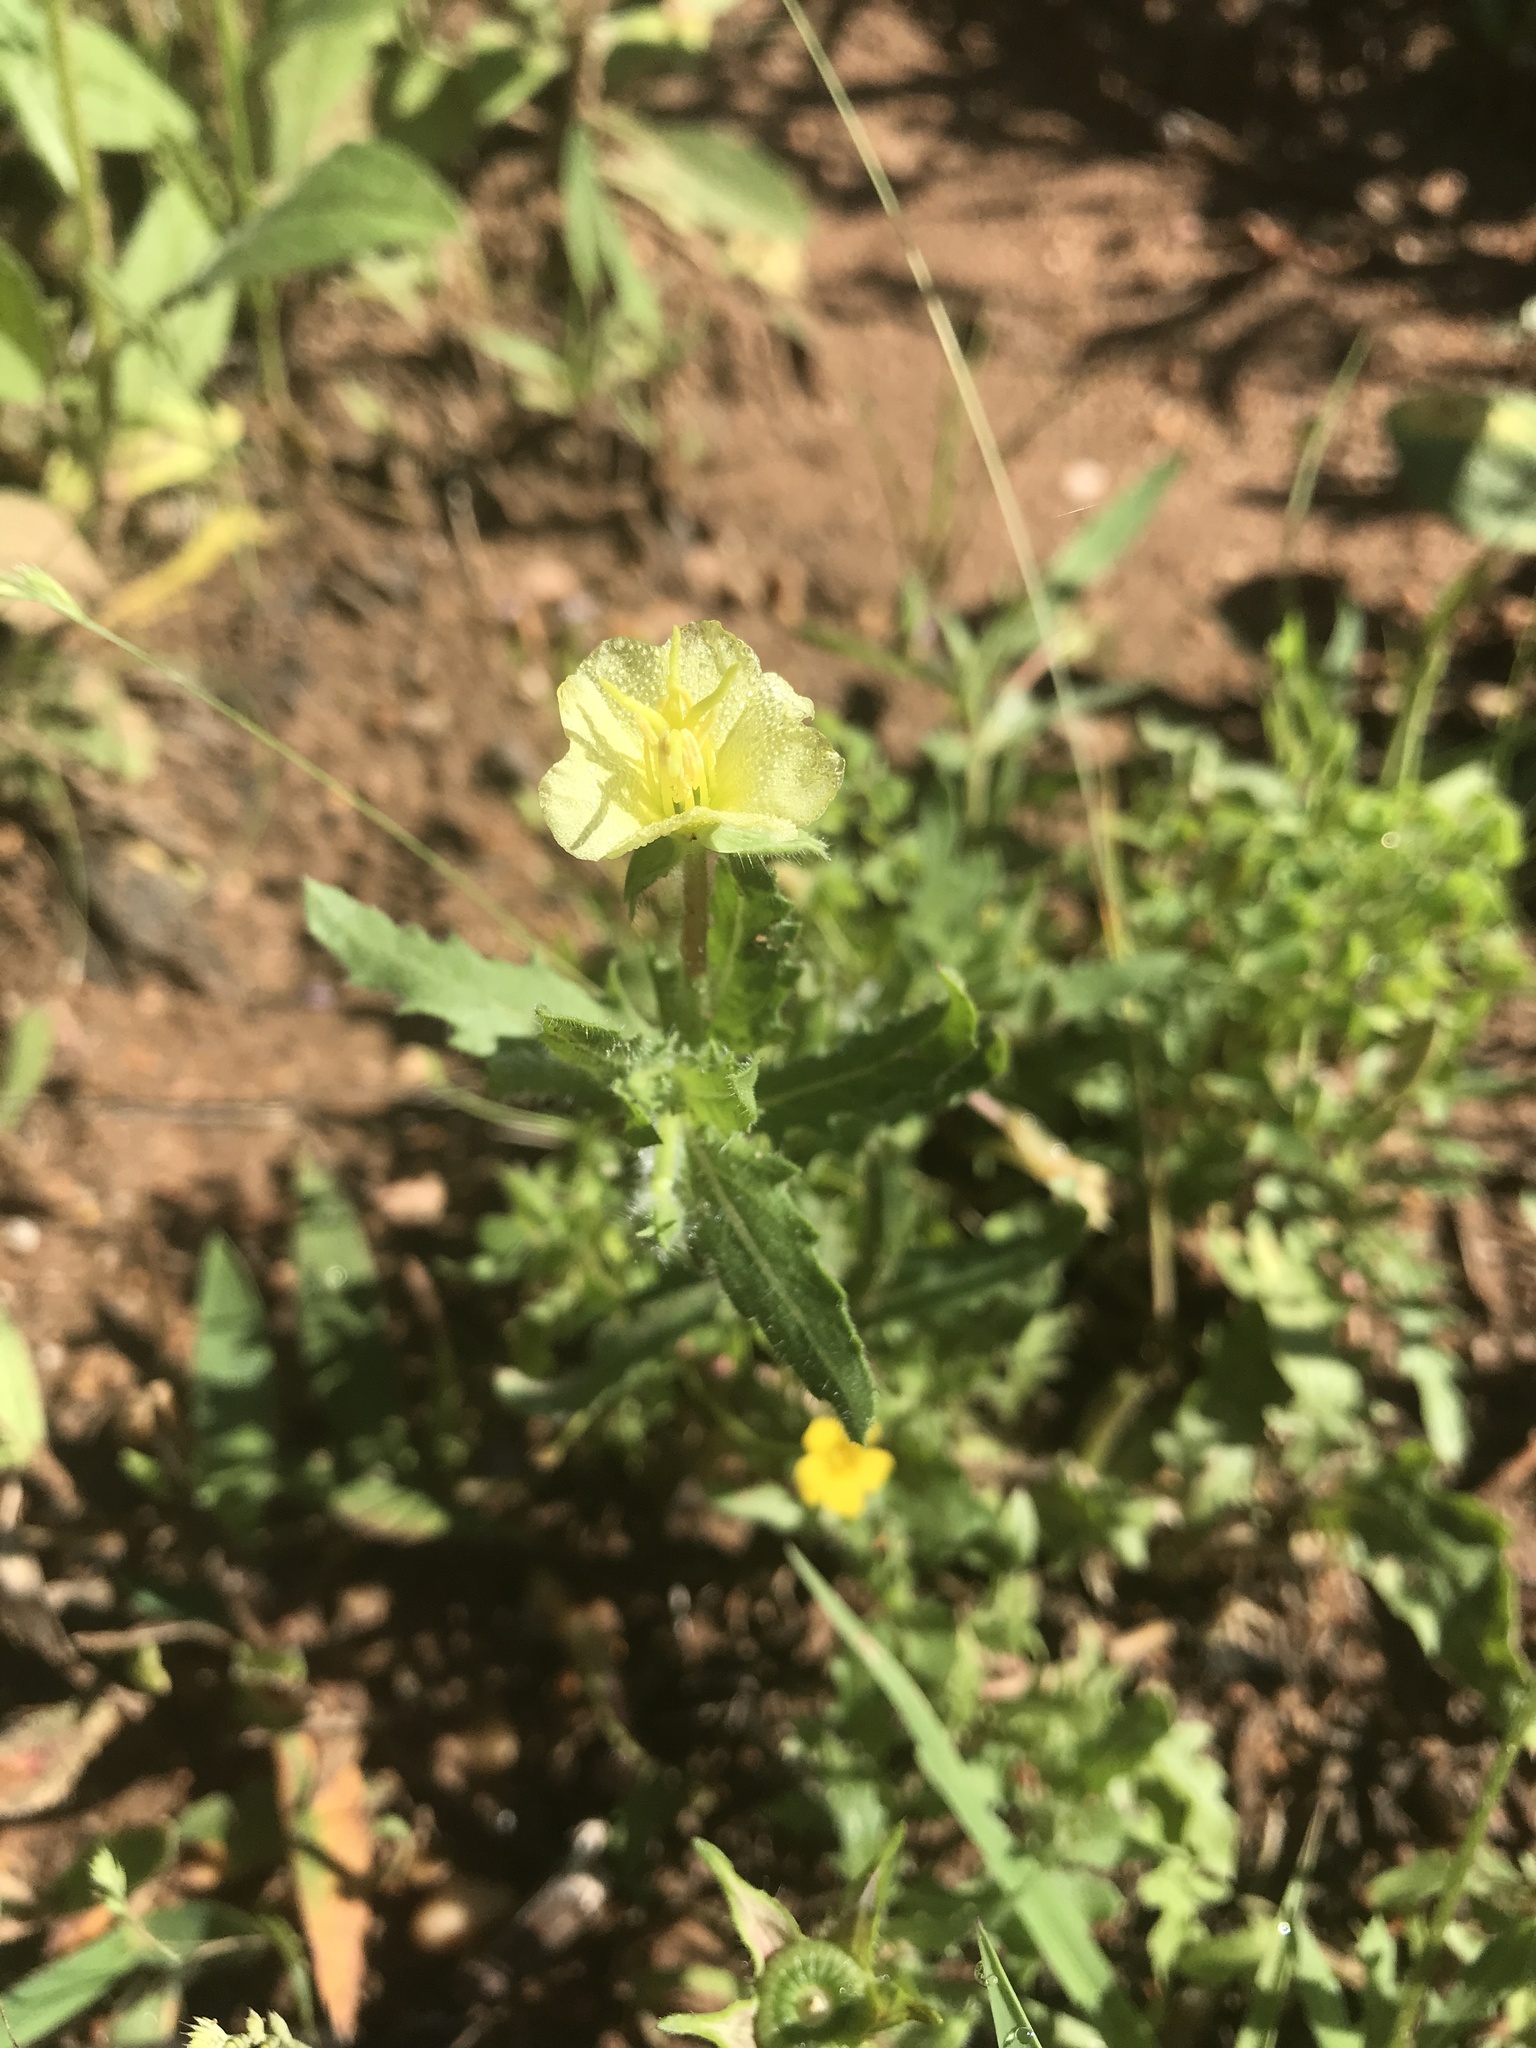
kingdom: Plantae
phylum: Tracheophyta
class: Magnoliopsida
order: Myrtales
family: Onagraceae
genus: Oenothera
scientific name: Oenothera laciniata
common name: Cut-leaved evening-primrose
